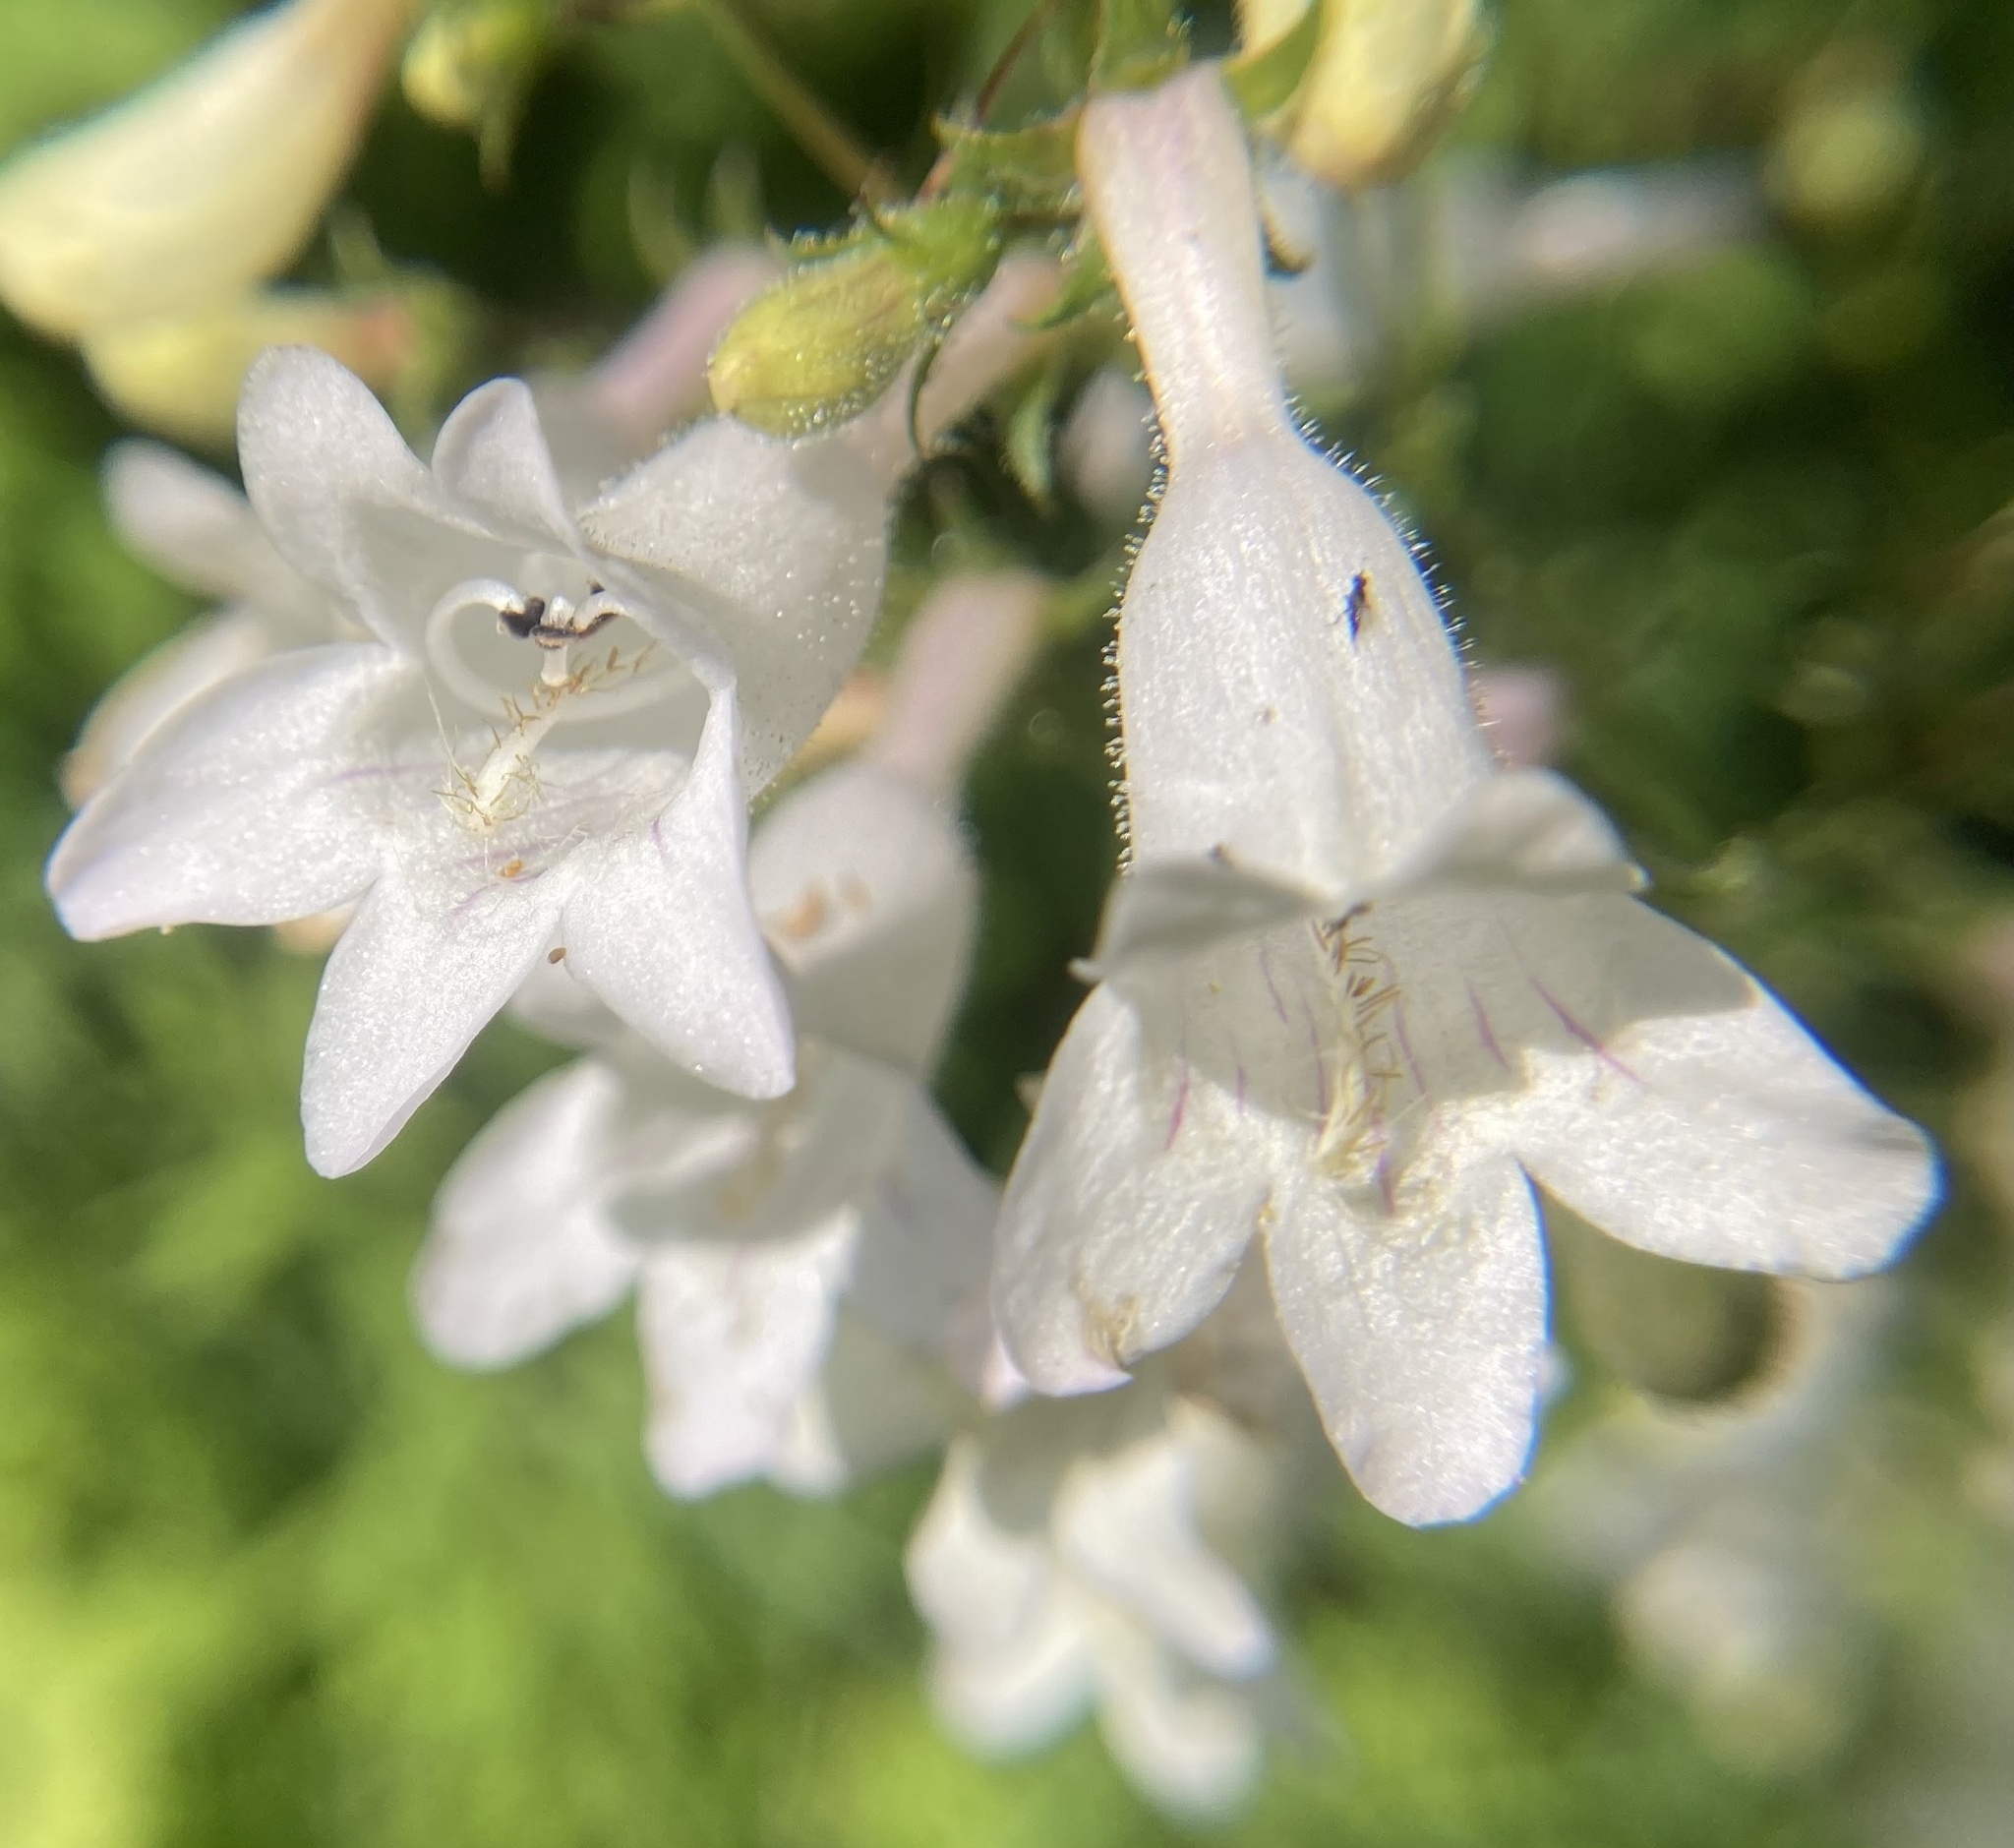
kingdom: Plantae
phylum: Tracheophyta
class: Magnoliopsida
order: Lamiales
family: Plantaginaceae
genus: Penstemon
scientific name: Penstemon digitalis
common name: Foxglove beardtongue
